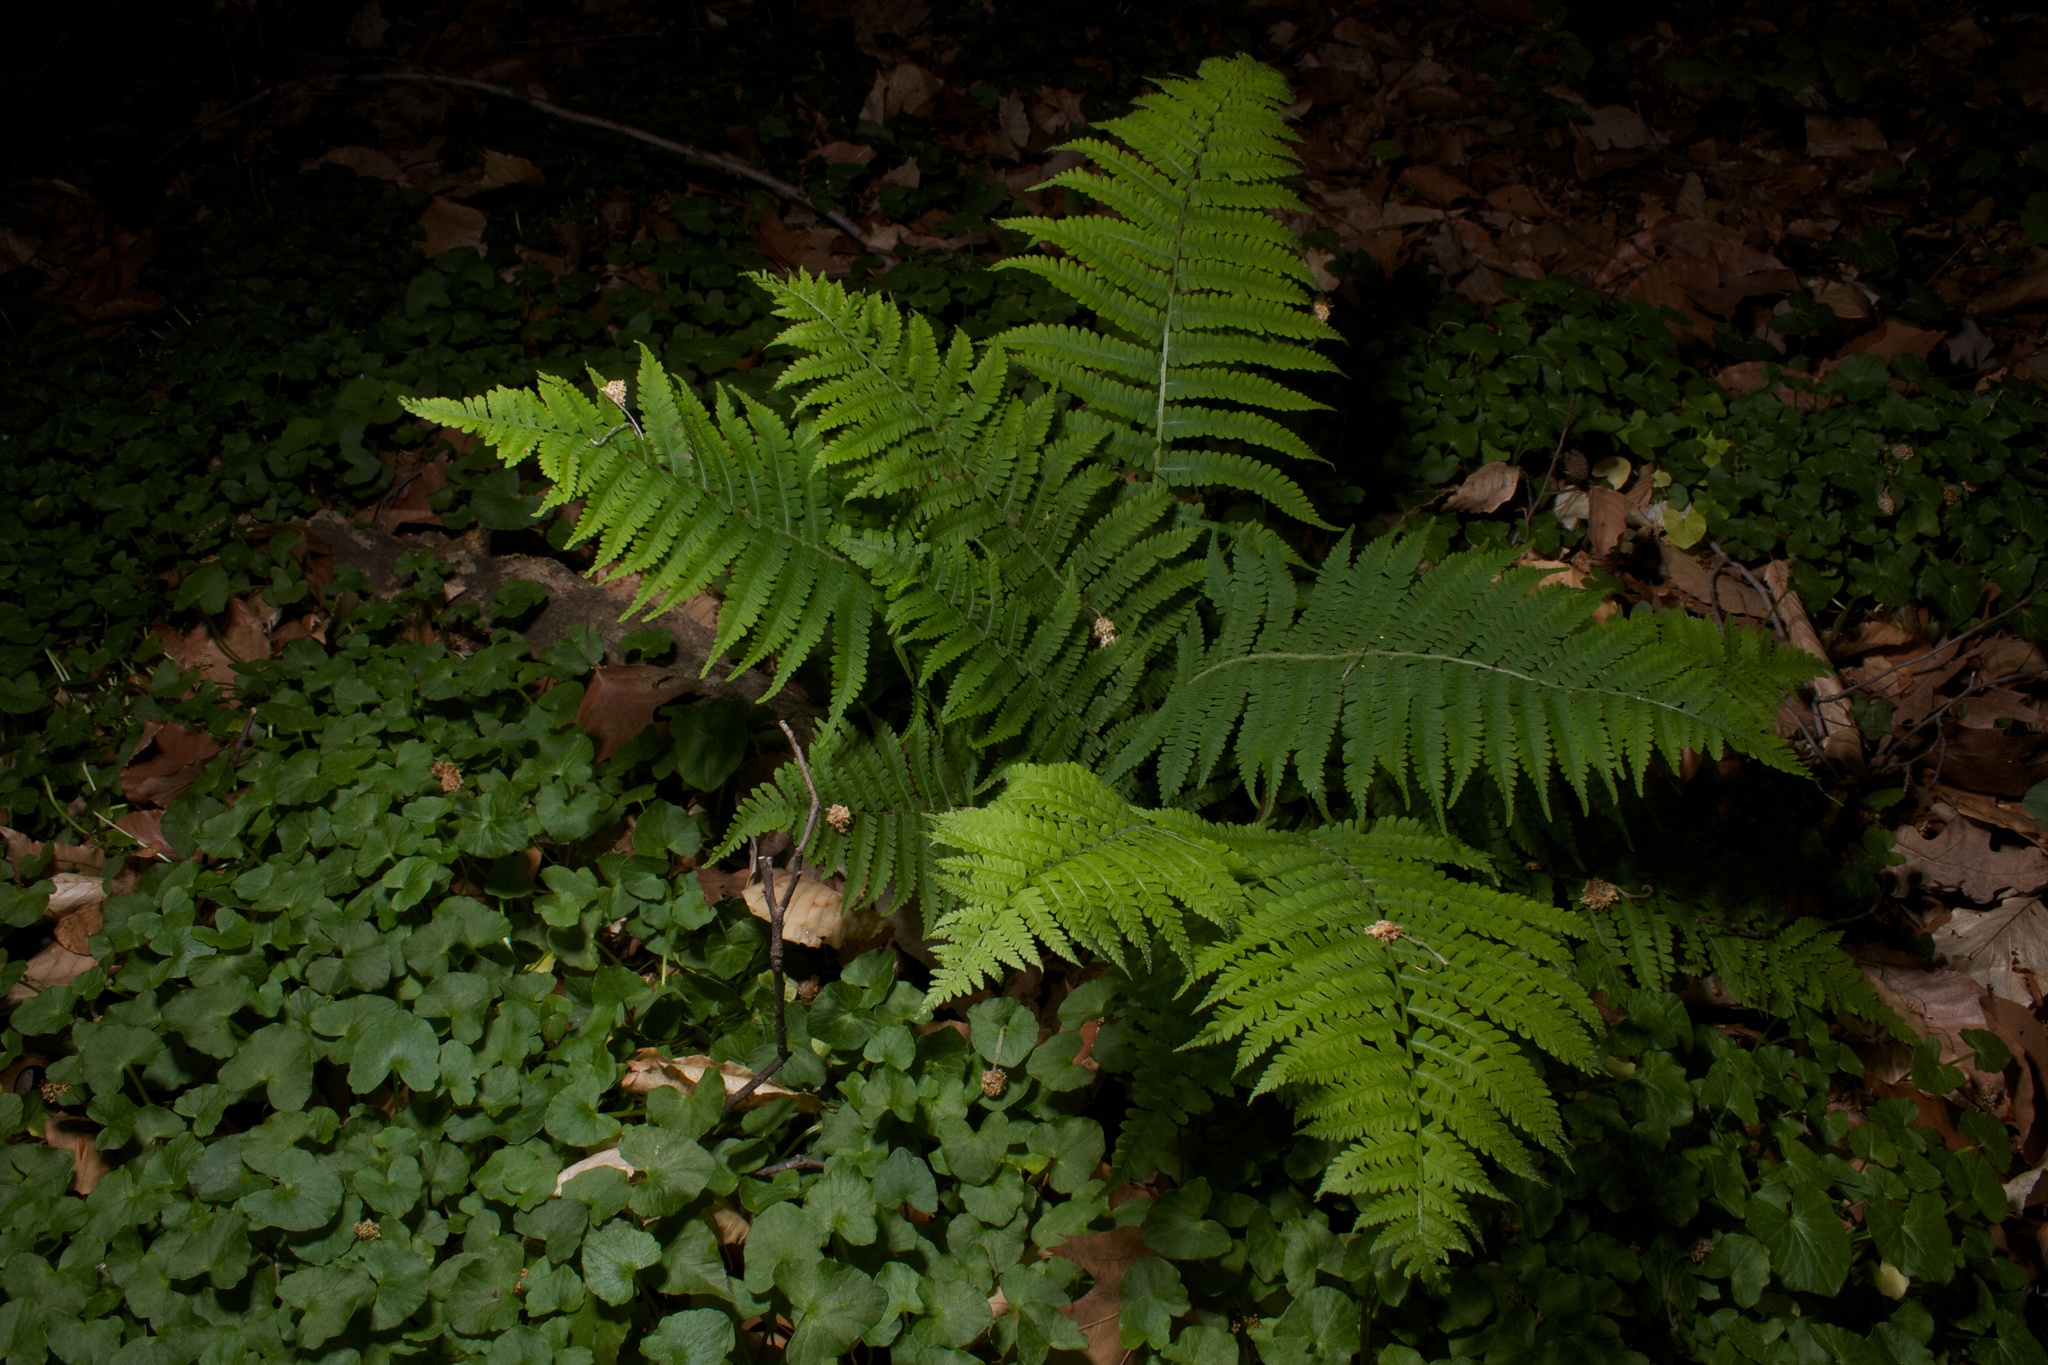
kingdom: Plantae
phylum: Tracheophyta
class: Polypodiopsida
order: Polypodiales
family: Athyriaceae
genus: Deparia
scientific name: Deparia acrostichoides
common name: Silver false spleenwort
